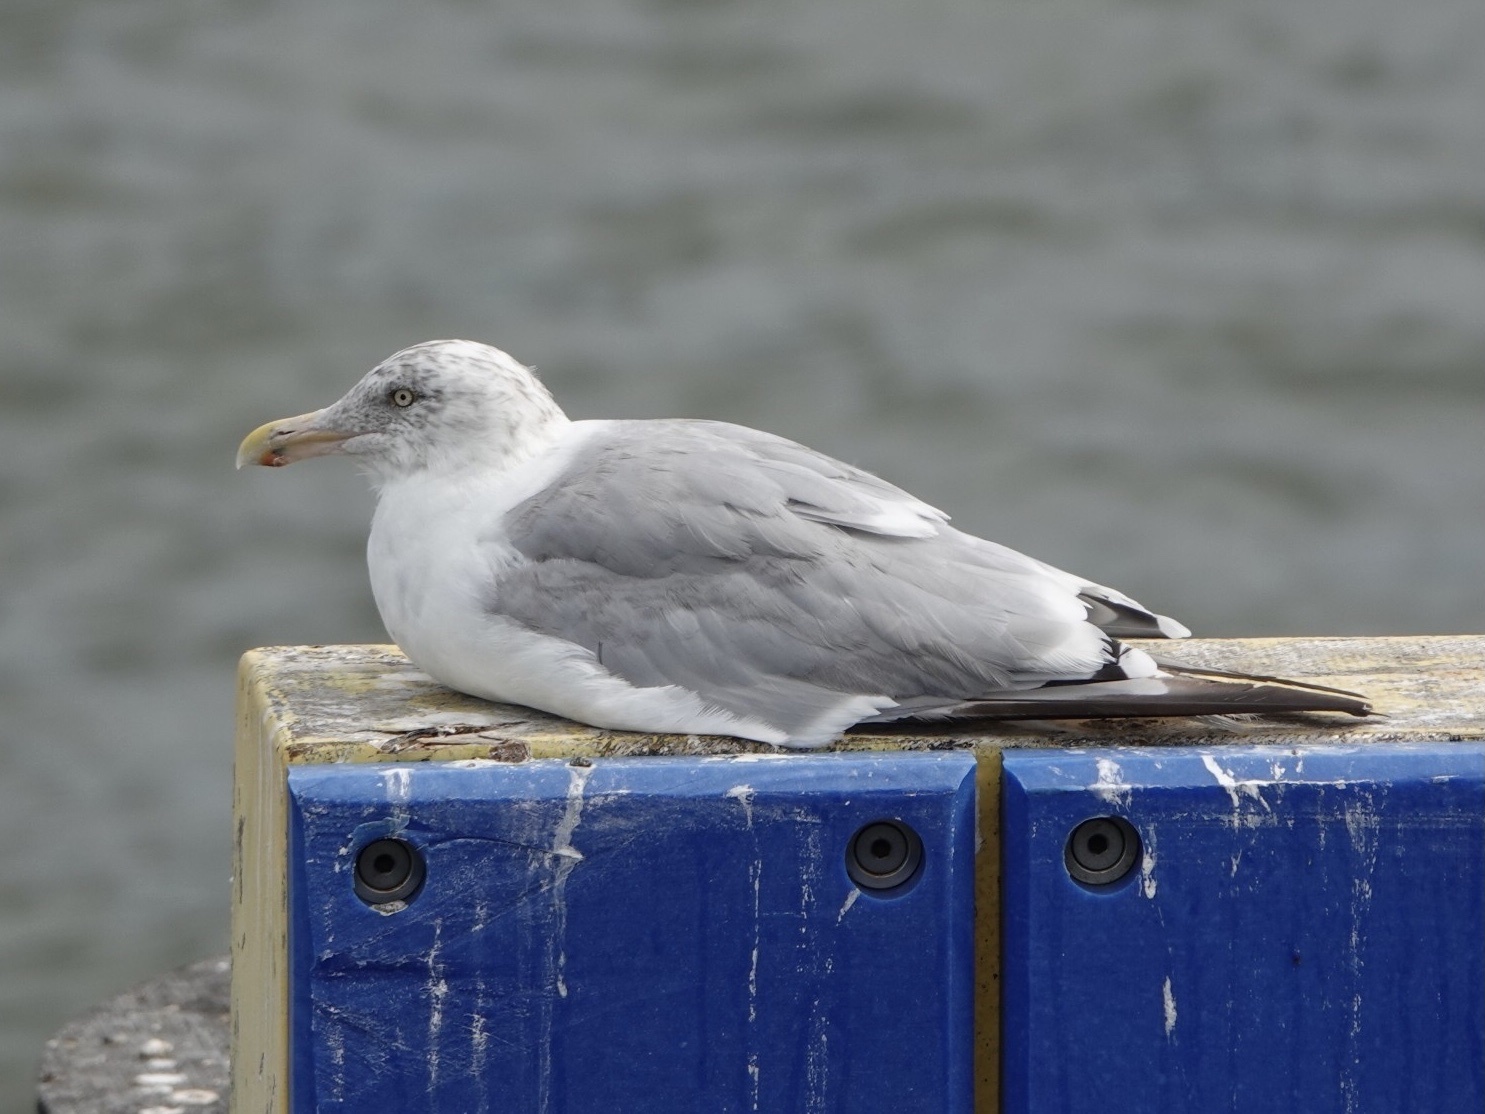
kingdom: Animalia
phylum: Chordata
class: Aves
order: Charadriiformes
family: Laridae
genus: Larus
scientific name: Larus argentatus
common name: Herring gull
